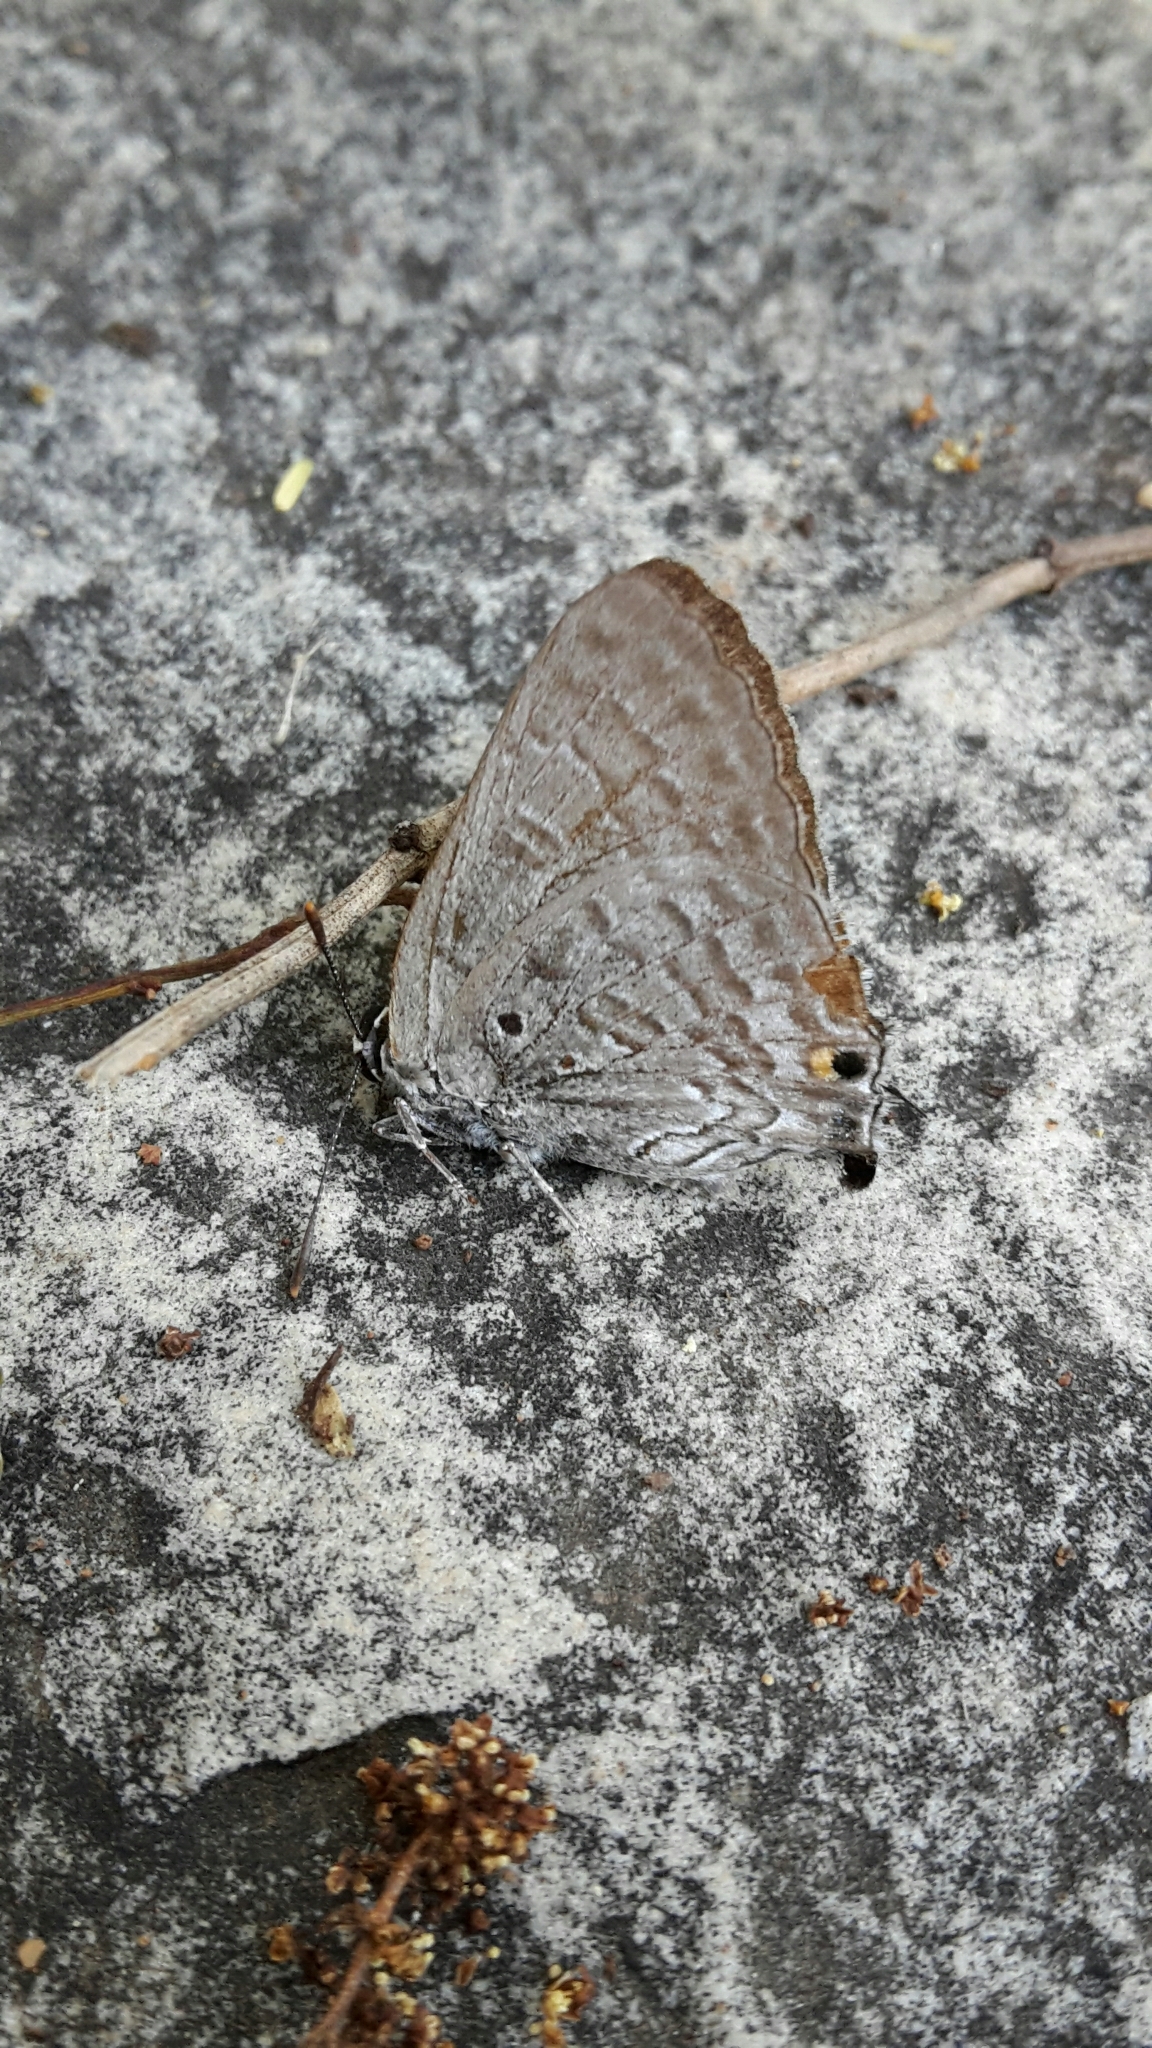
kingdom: Animalia
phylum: Arthropoda
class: Insecta
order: Lepidoptera
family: Lycaenidae
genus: Deudorix
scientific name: Deudorix antalus
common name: Brown playboy
